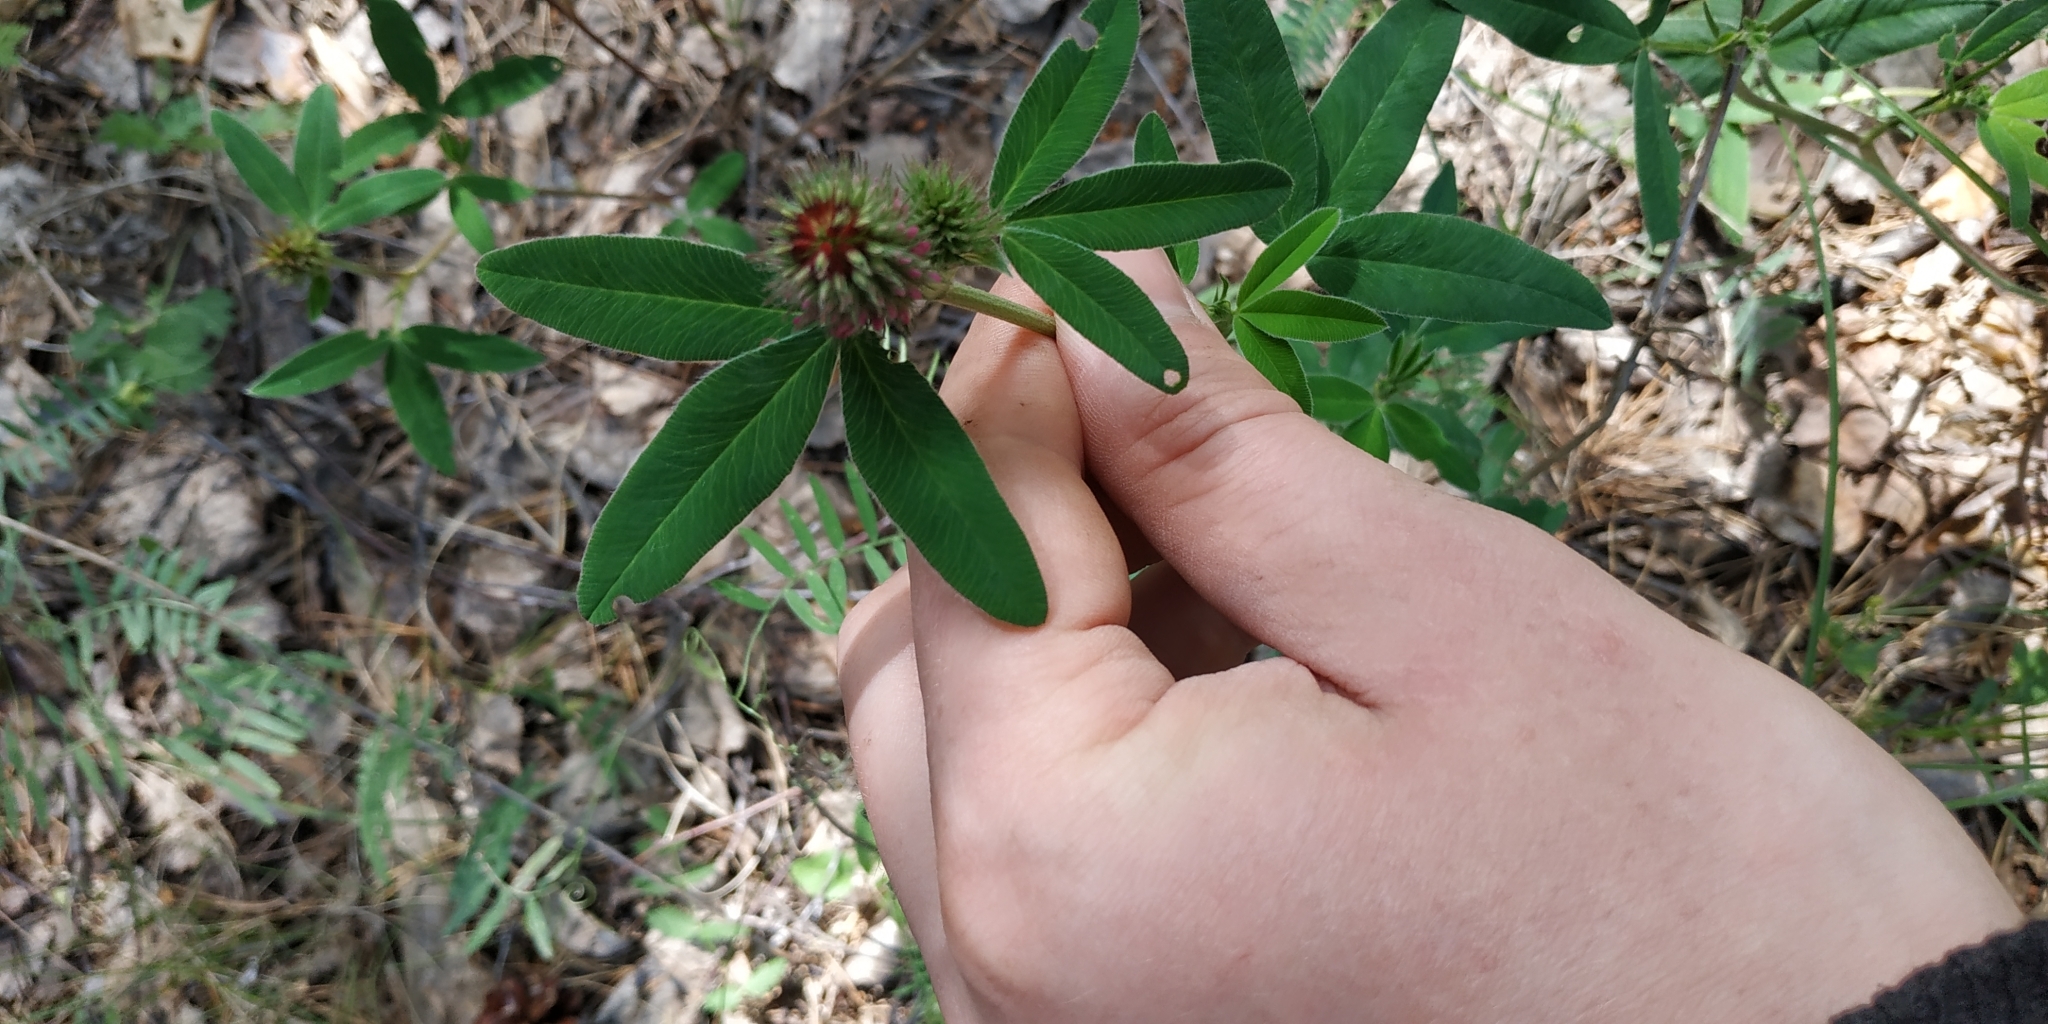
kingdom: Plantae
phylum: Tracheophyta
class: Magnoliopsida
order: Fabales
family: Fabaceae
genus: Trifolium
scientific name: Trifolium medium
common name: Zigzag clover
